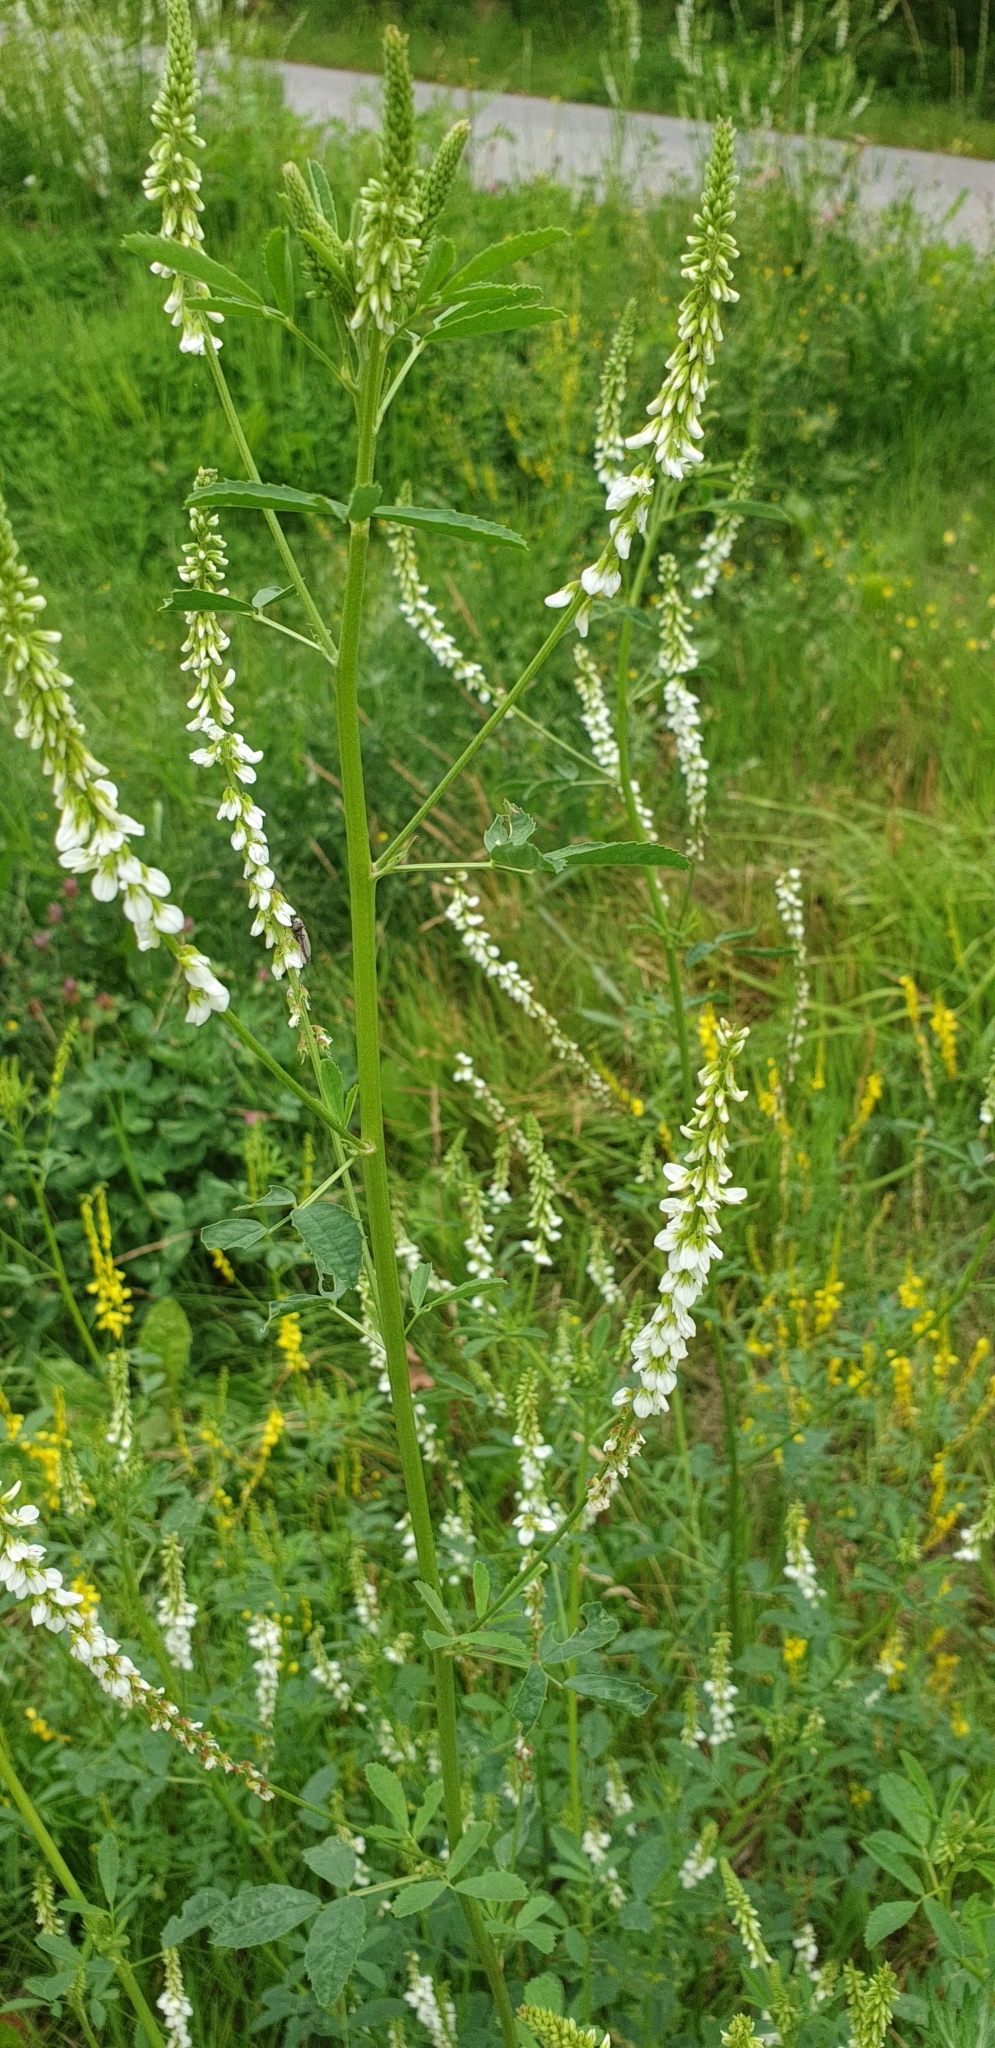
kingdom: Plantae
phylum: Tracheophyta
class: Magnoliopsida
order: Fabales
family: Fabaceae
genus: Melilotus
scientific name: Melilotus albus
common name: White melilot
